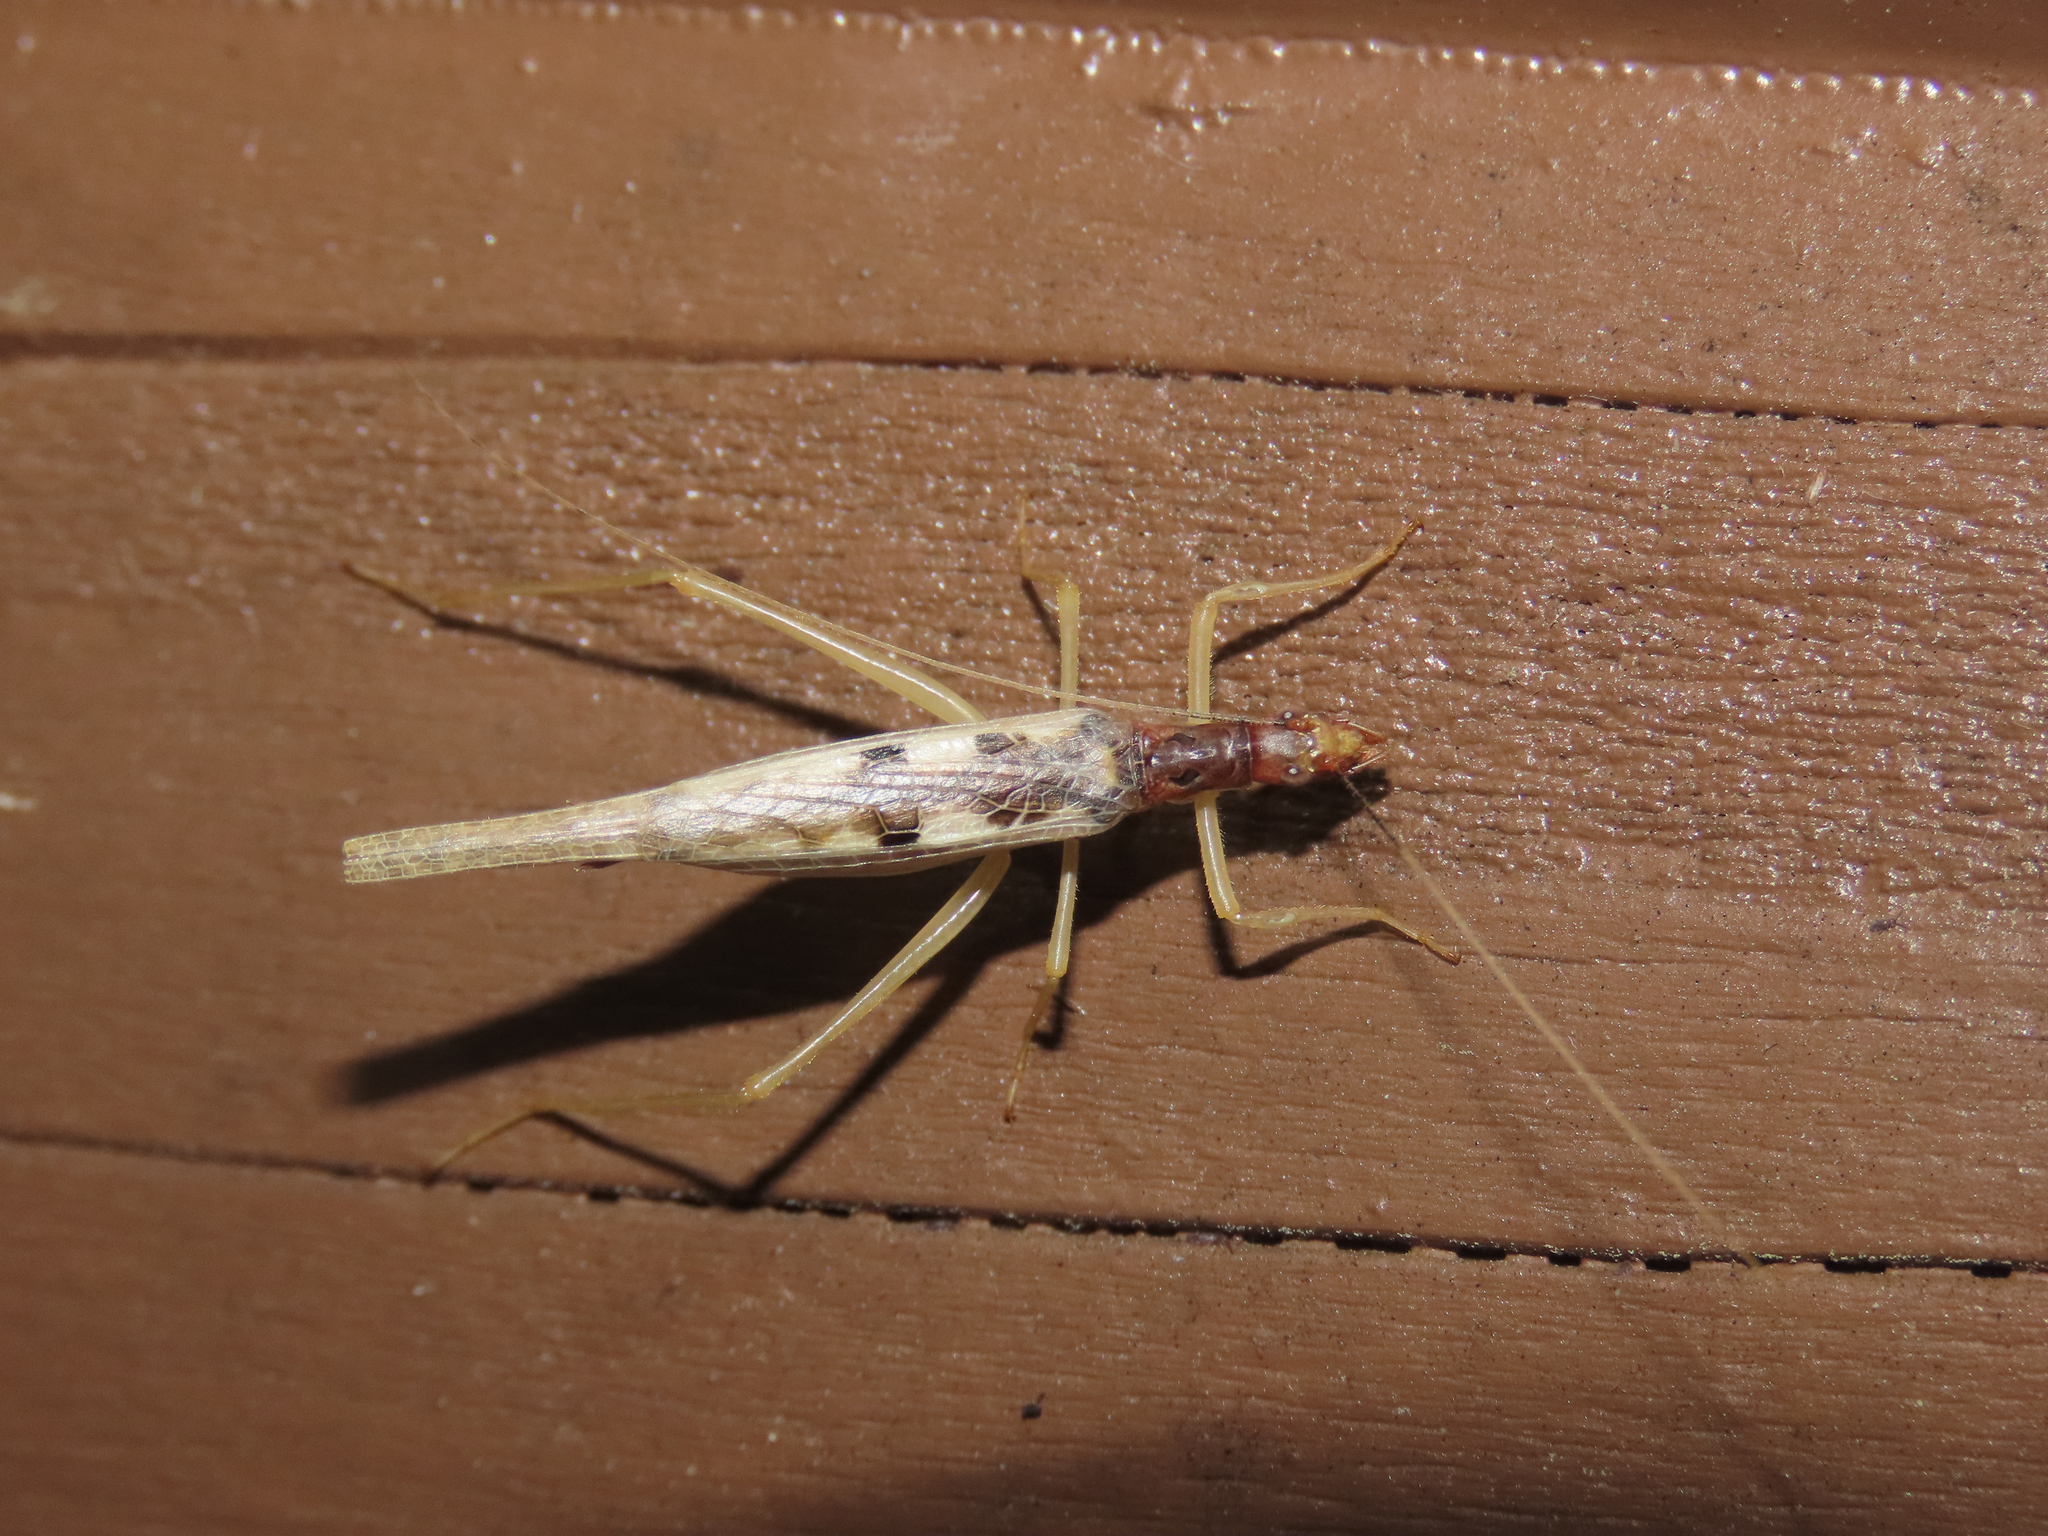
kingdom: Animalia
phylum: Arthropoda
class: Insecta
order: Orthoptera
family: Gryllidae
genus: Neoxabea
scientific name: Neoxabea bipunctata
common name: Two-spotted tree cricket
